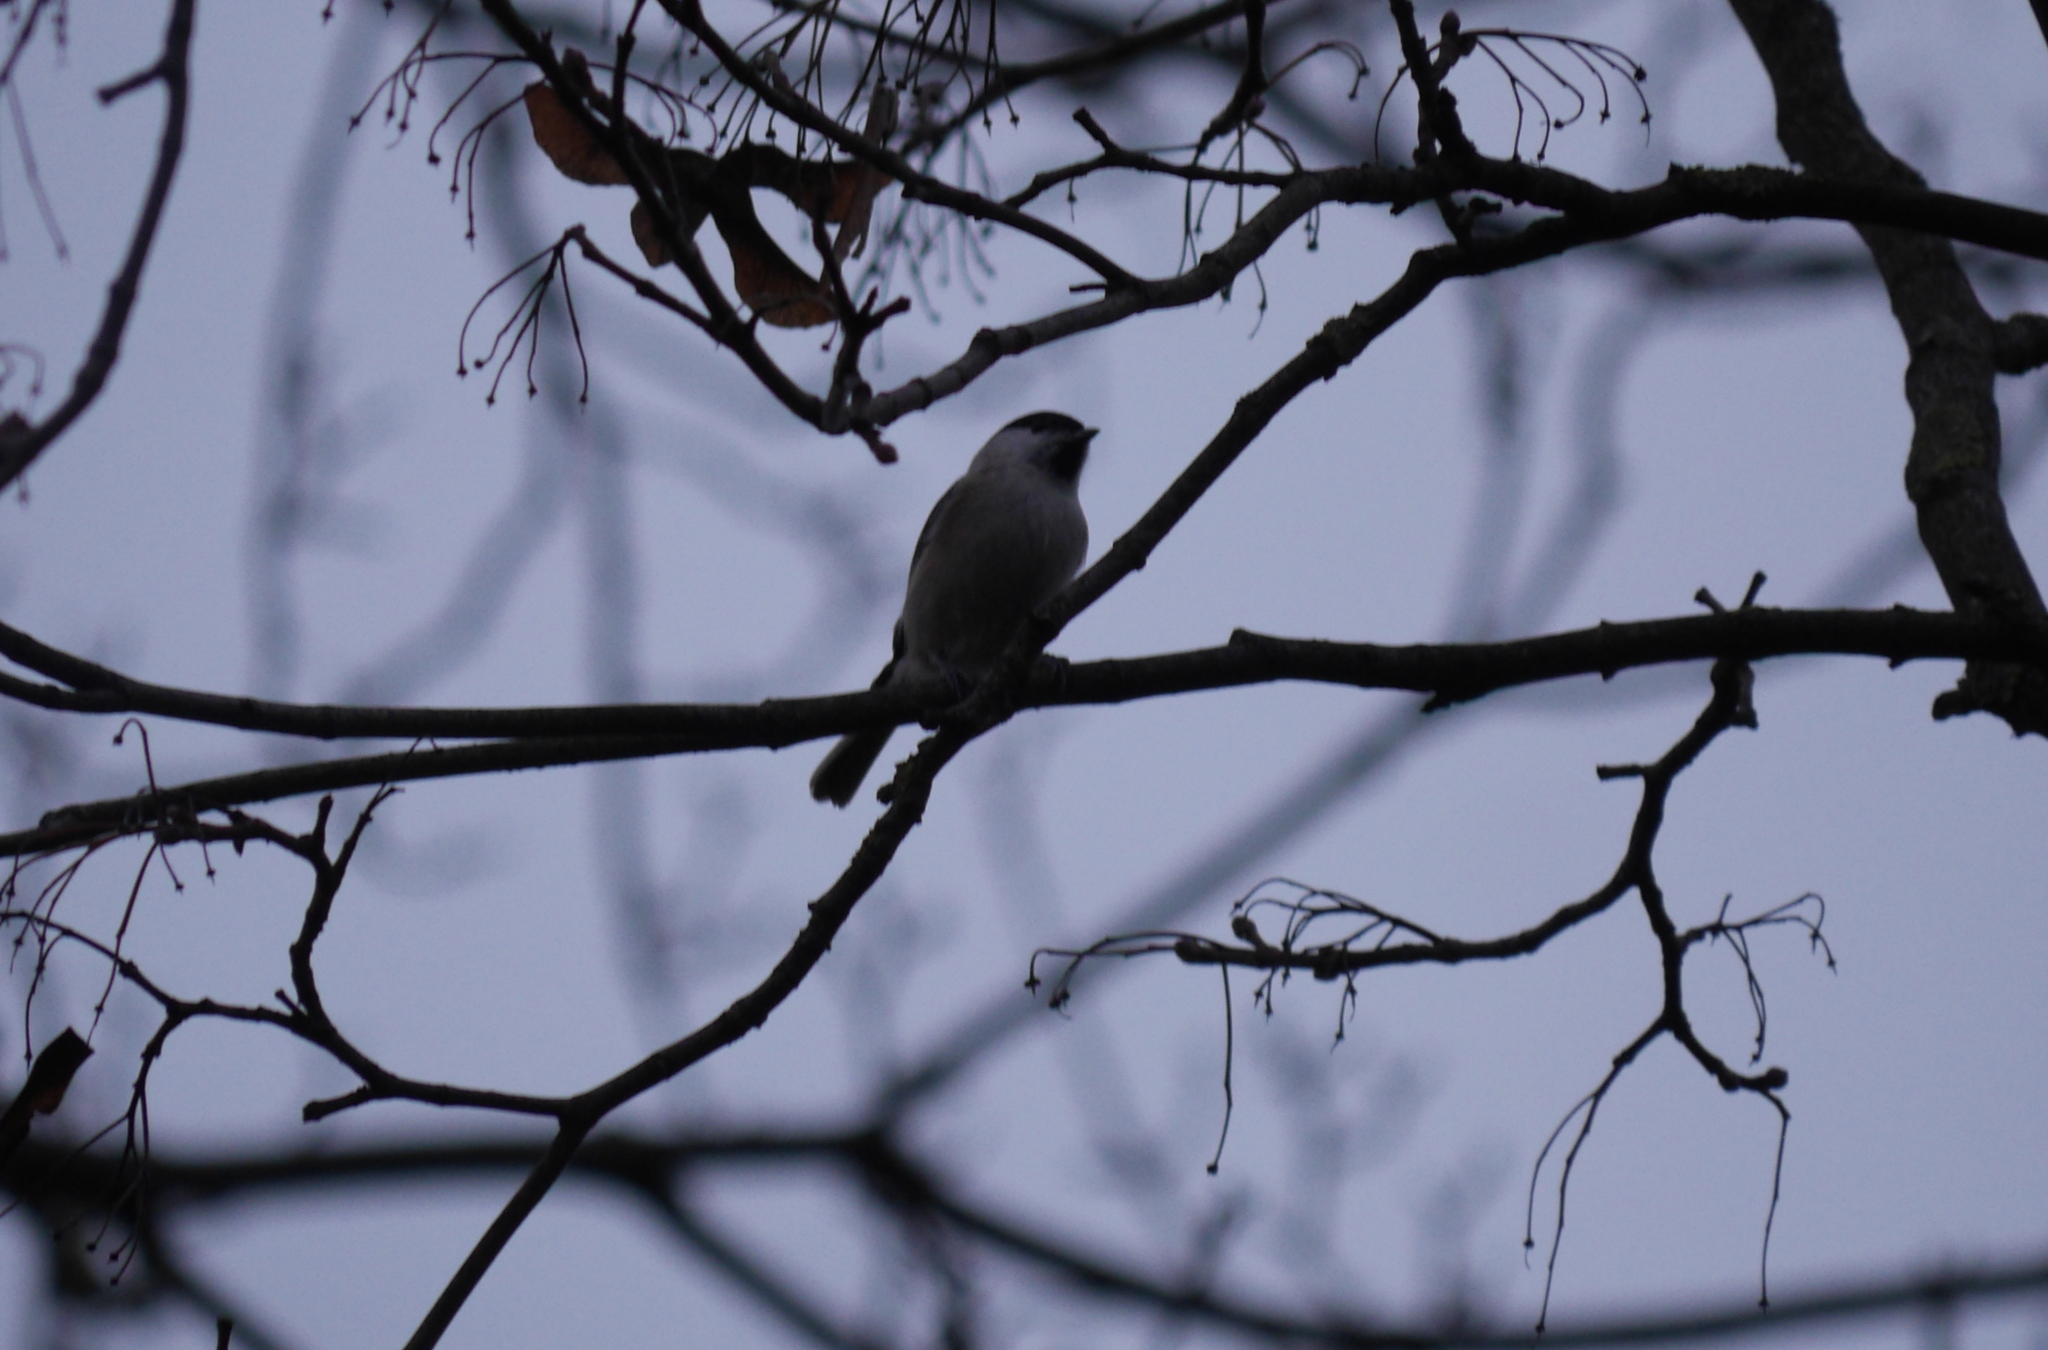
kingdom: Animalia
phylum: Chordata
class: Aves
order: Passeriformes
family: Paridae
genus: Poecile
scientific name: Poecile palustris
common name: Marsh tit
